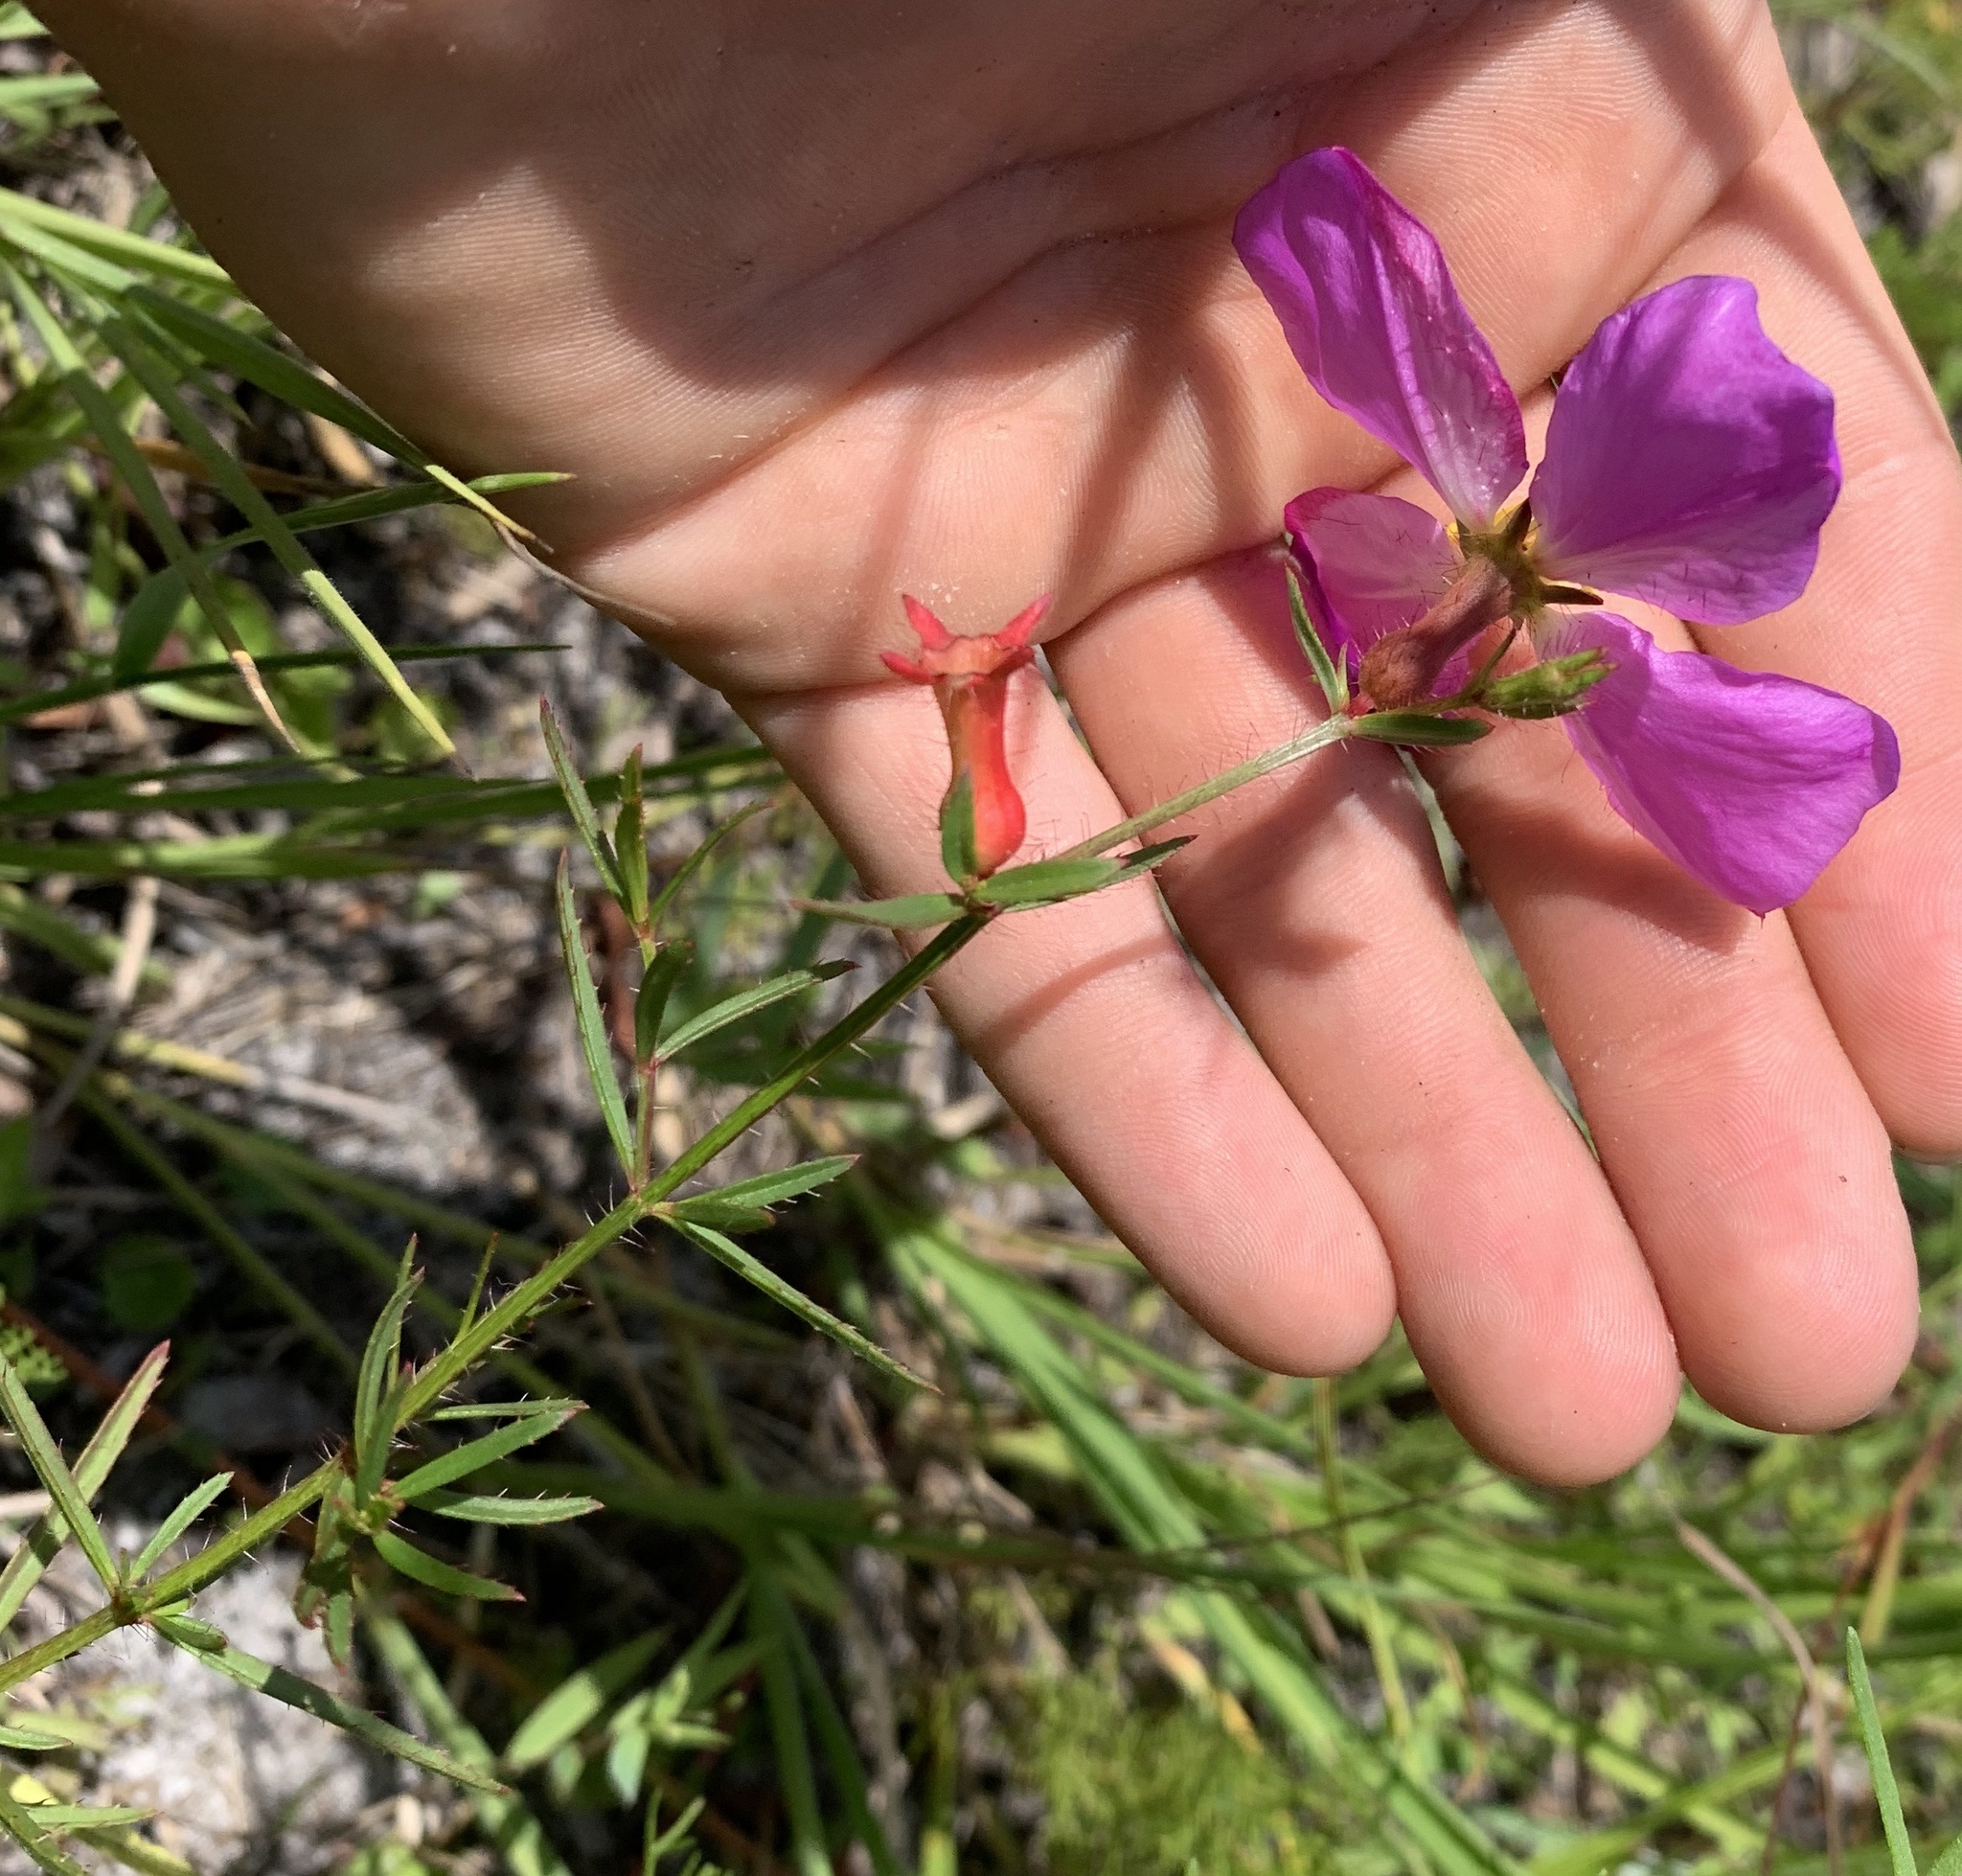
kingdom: Plantae
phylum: Tracheophyta
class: Magnoliopsida
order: Myrtales
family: Melastomataceae
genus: Rhexia
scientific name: Rhexia cubensis
